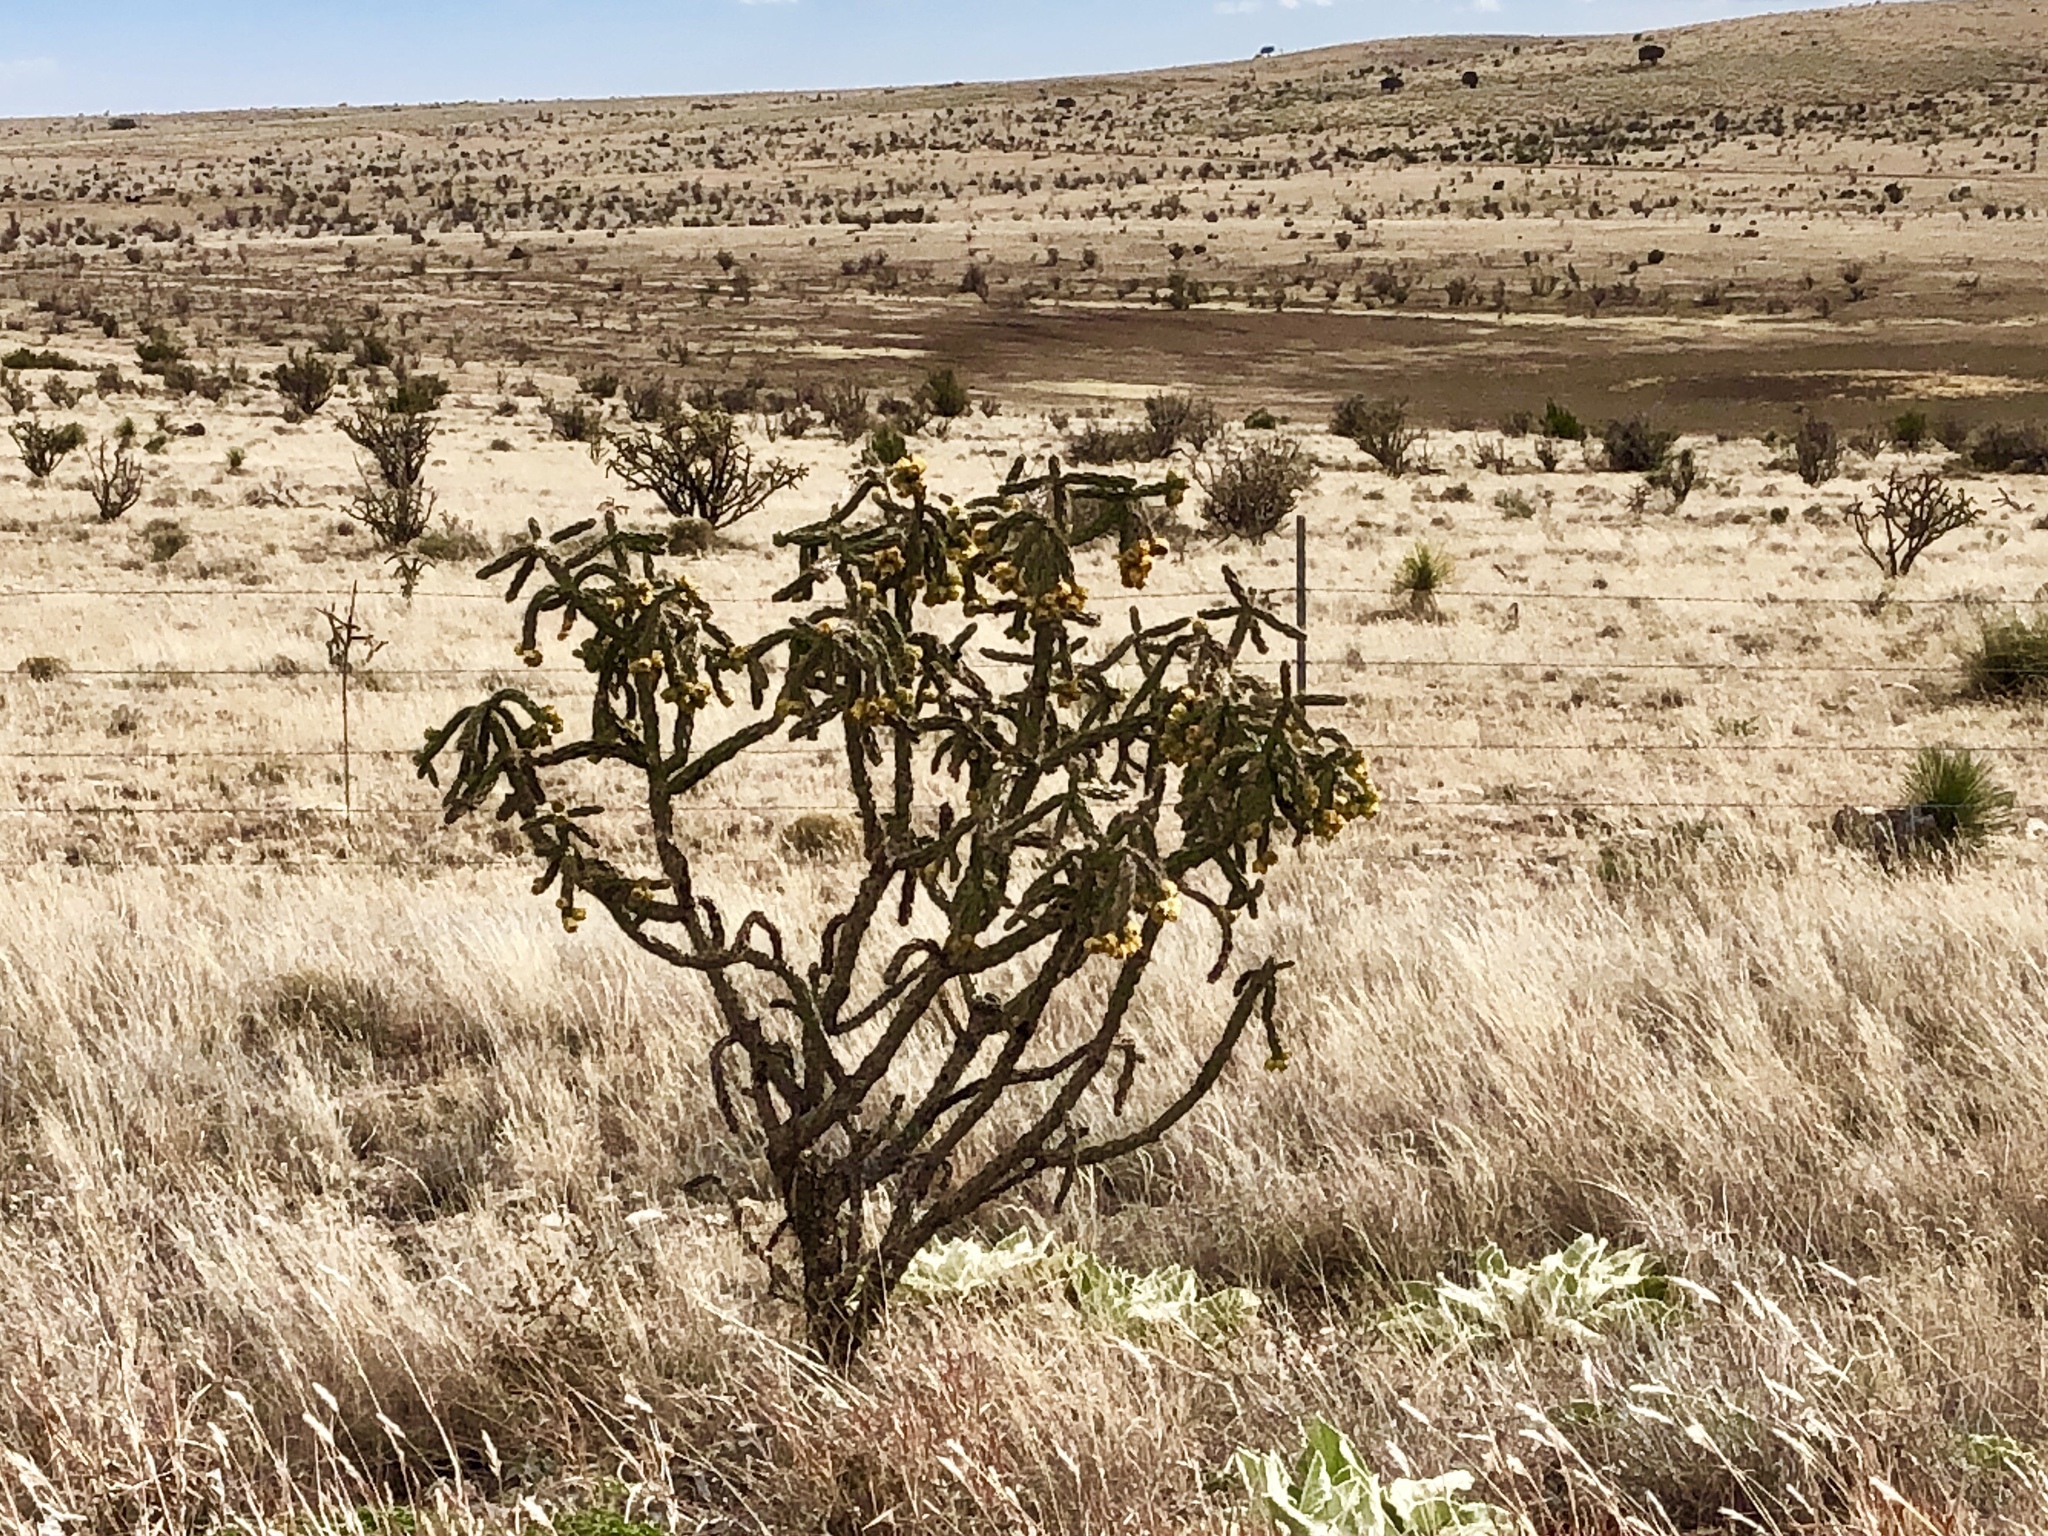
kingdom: Plantae
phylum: Tracheophyta
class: Magnoliopsida
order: Caryophyllales
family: Cactaceae
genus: Cylindropuntia
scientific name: Cylindropuntia imbricata
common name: Candelabrum cactus
